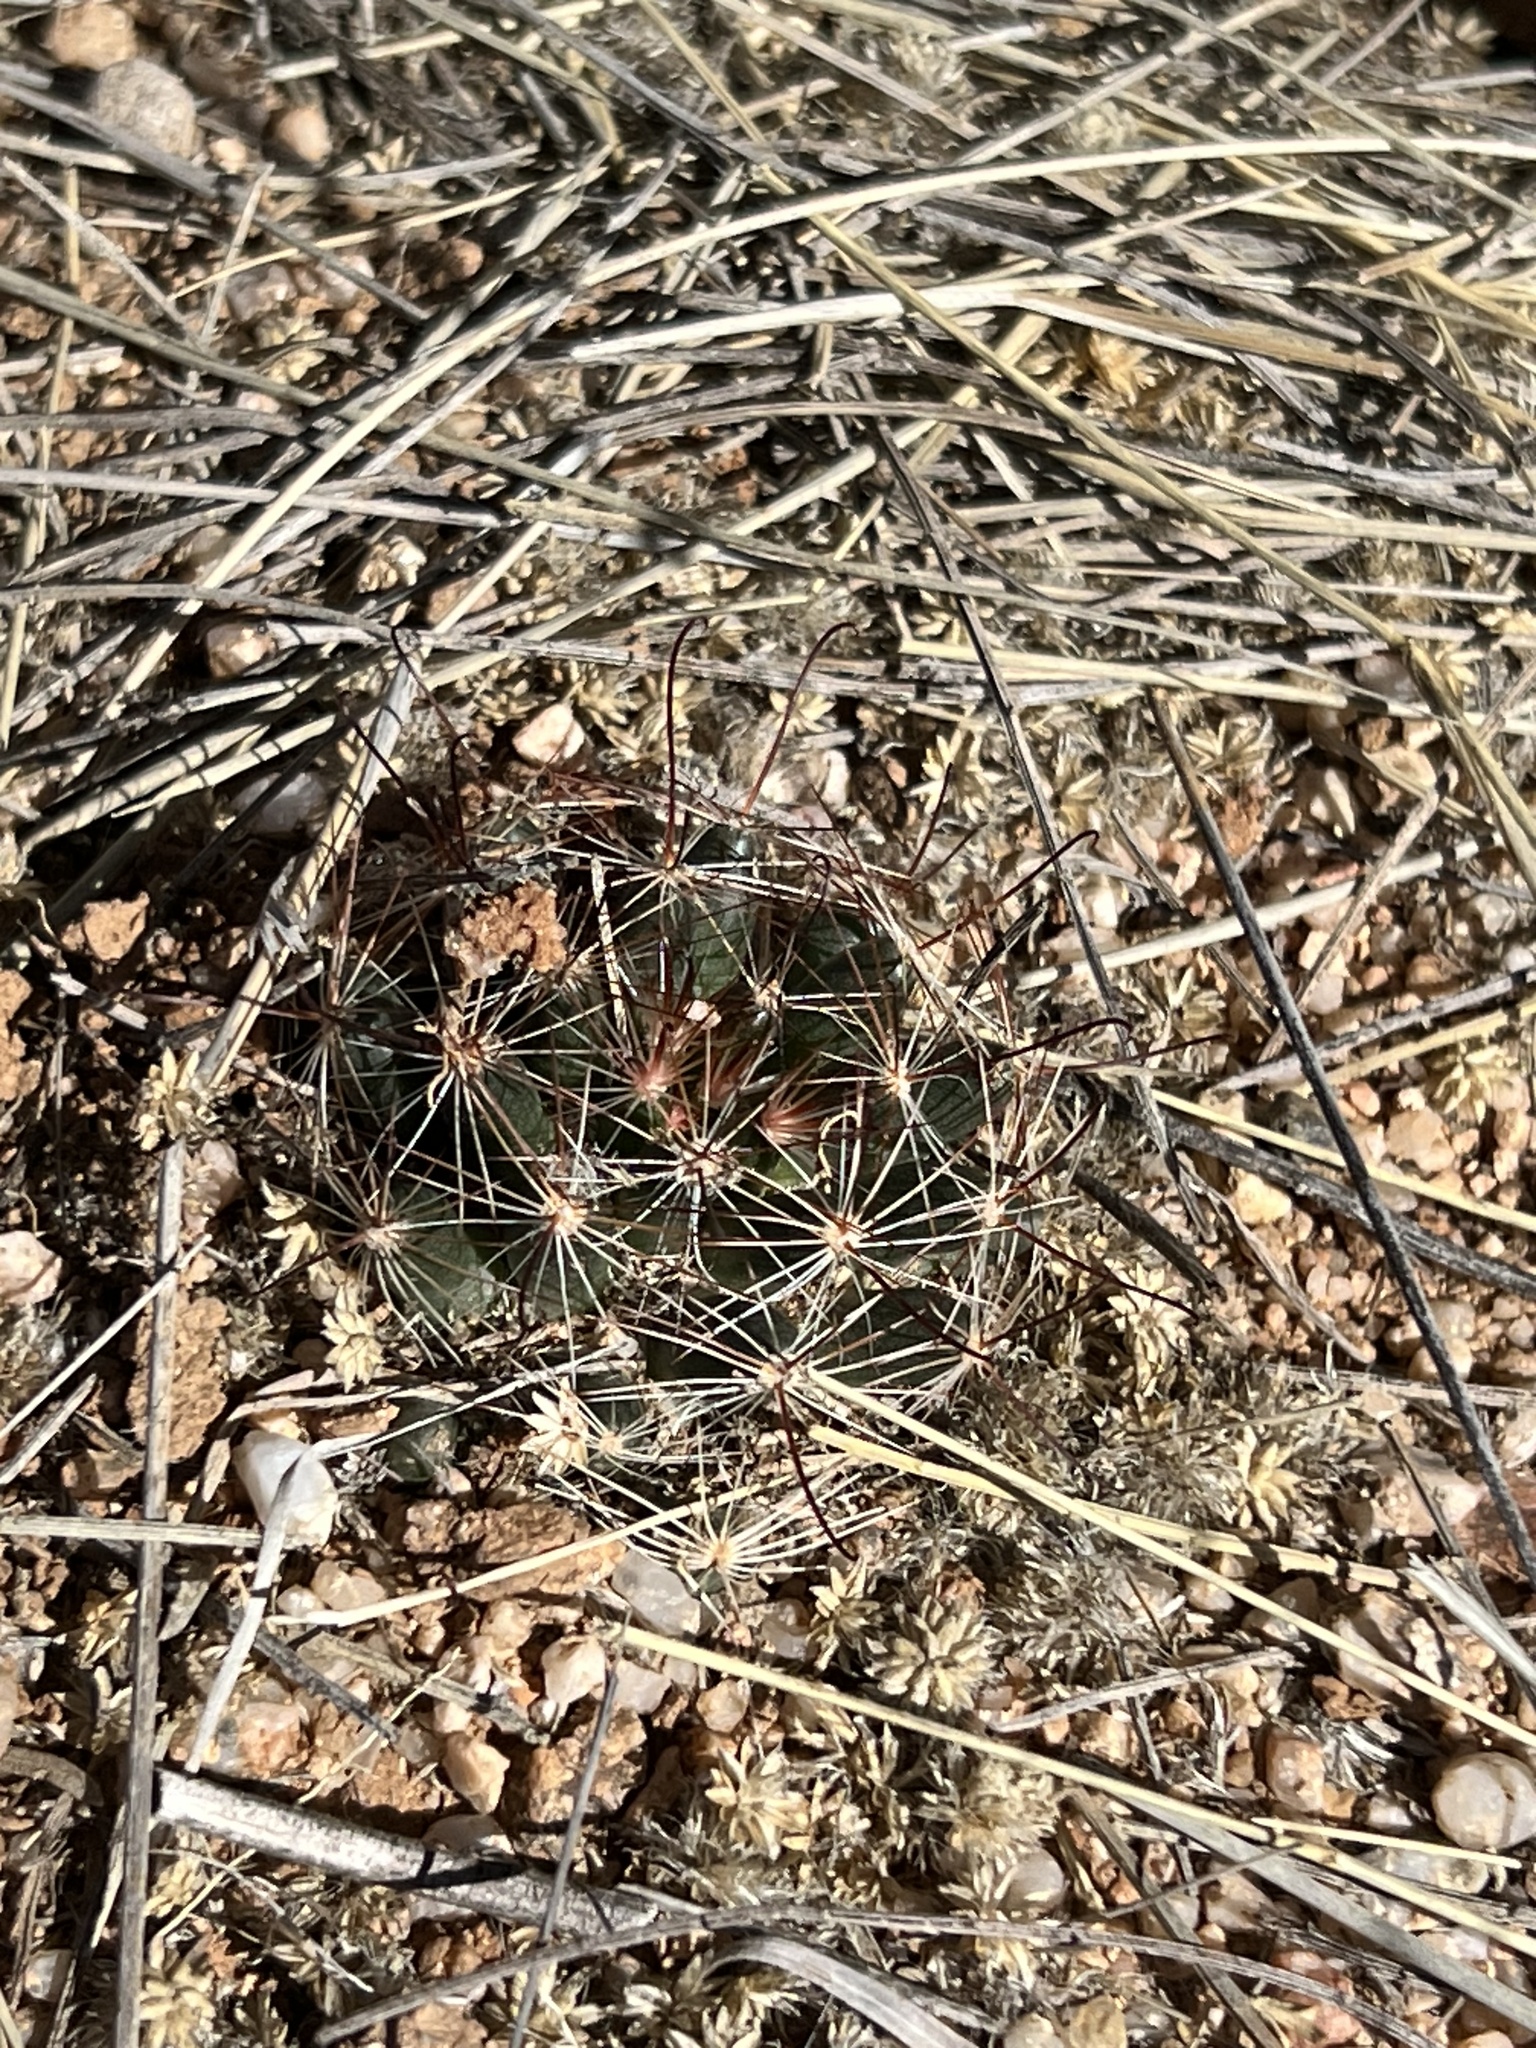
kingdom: Plantae
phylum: Tracheophyta
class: Magnoliopsida
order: Caryophyllales
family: Cactaceae
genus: Cochemiea
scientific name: Cochemiea wrightii
